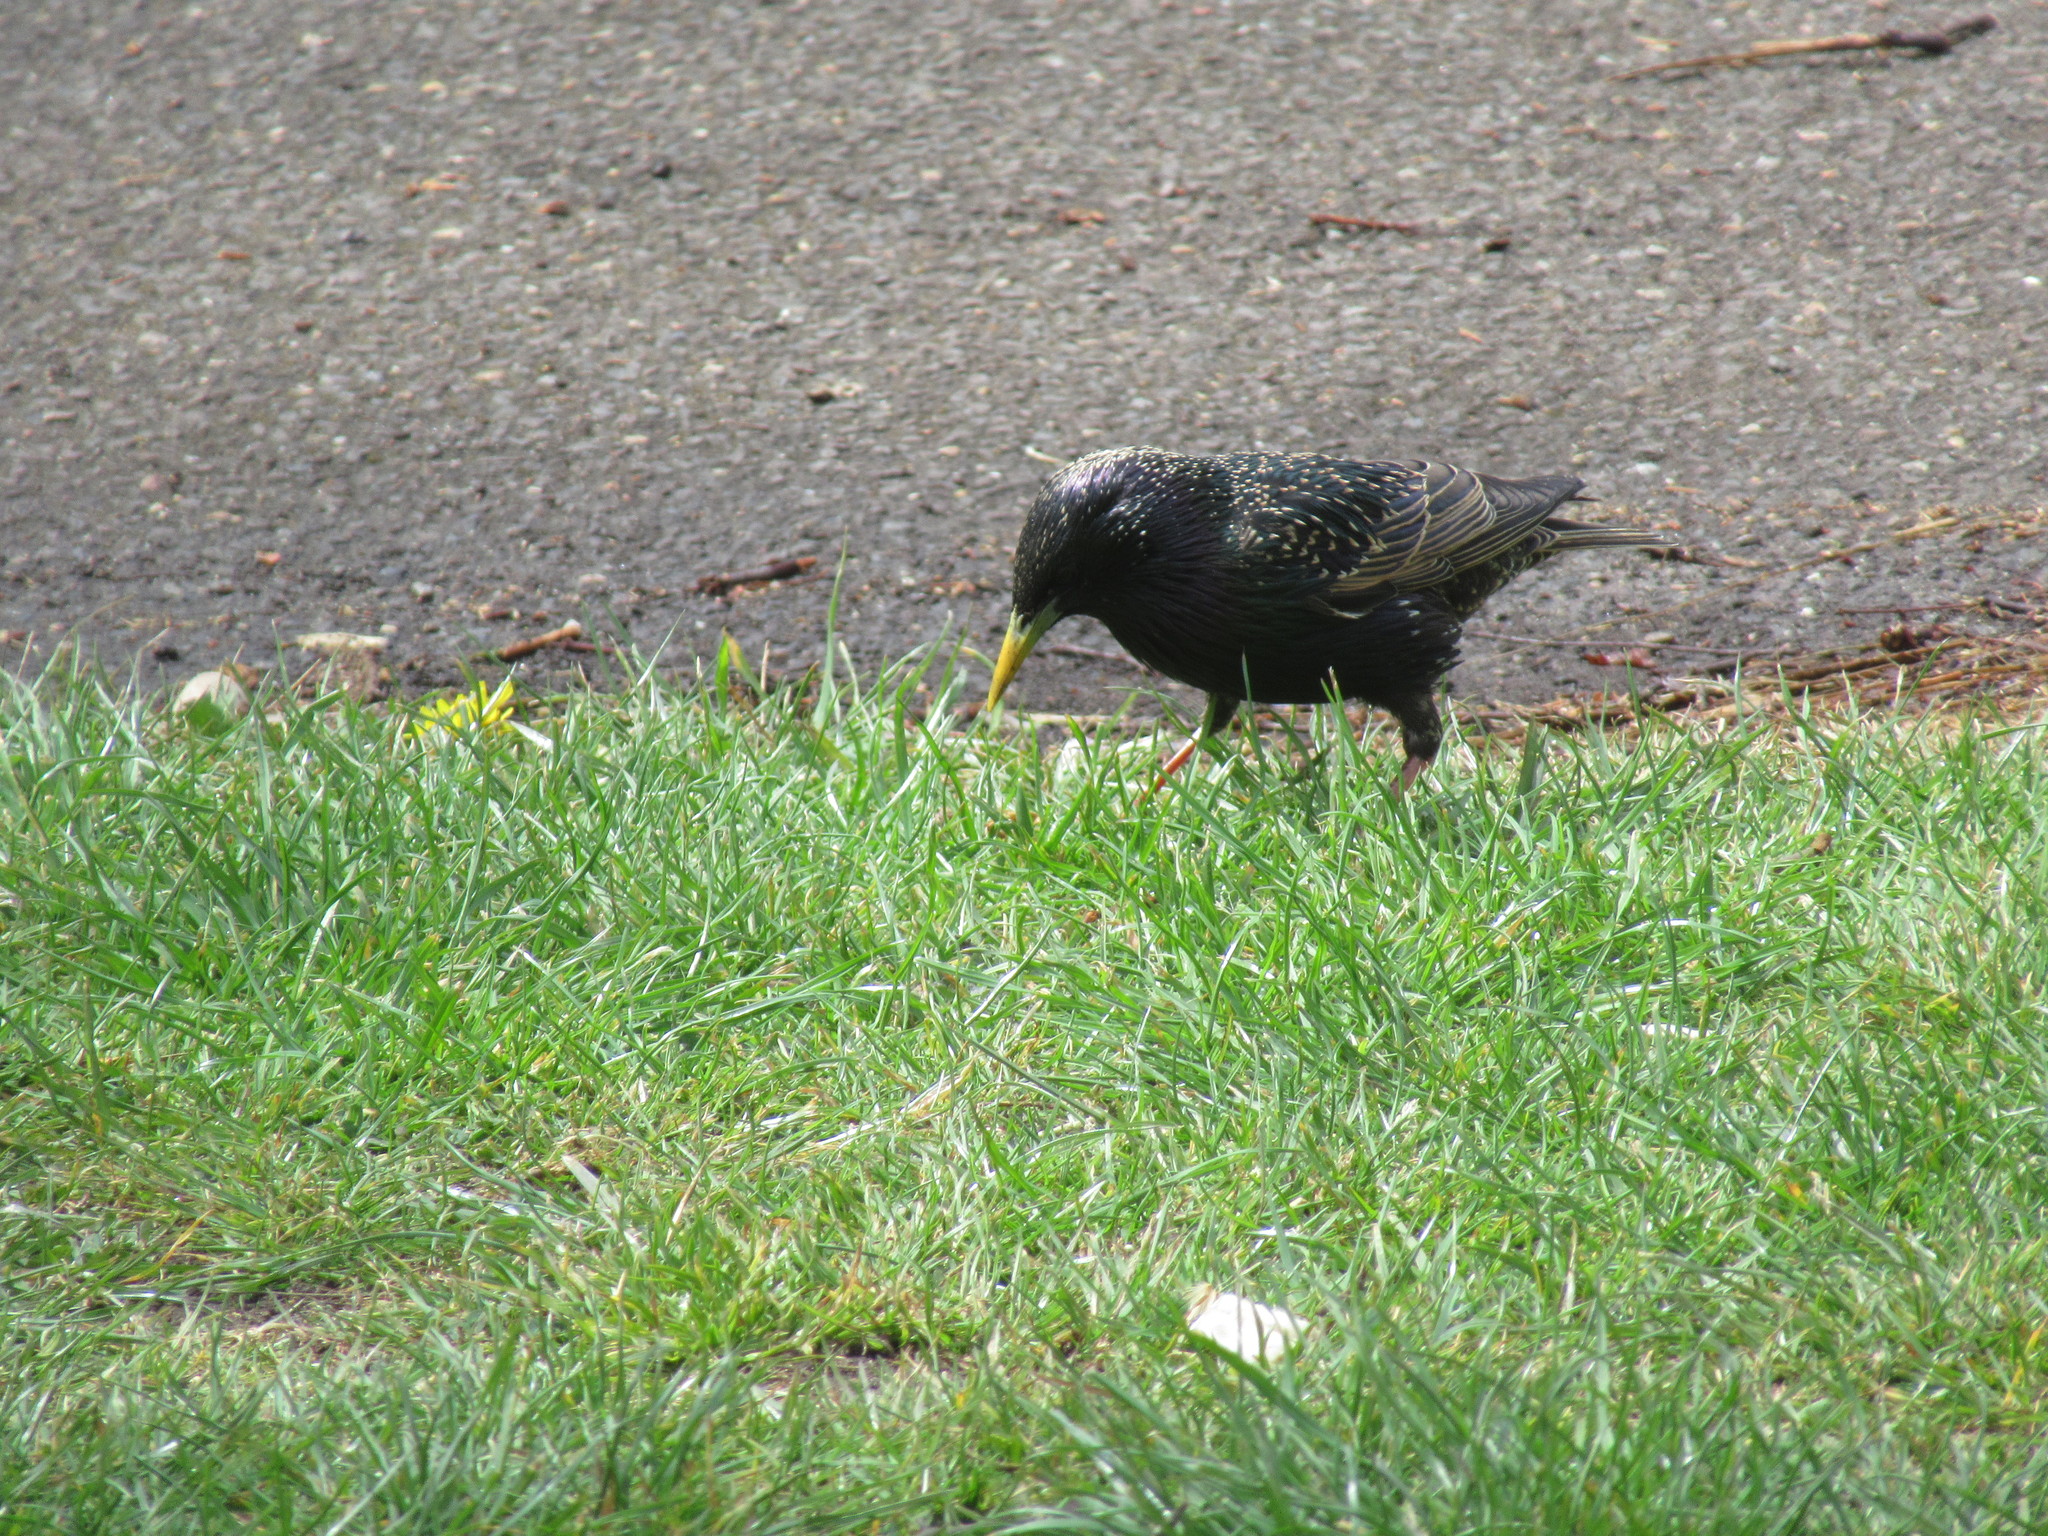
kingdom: Animalia
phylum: Chordata
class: Aves
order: Passeriformes
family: Sturnidae
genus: Sturnus
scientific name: Sturnus vulgaris
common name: Common starling
